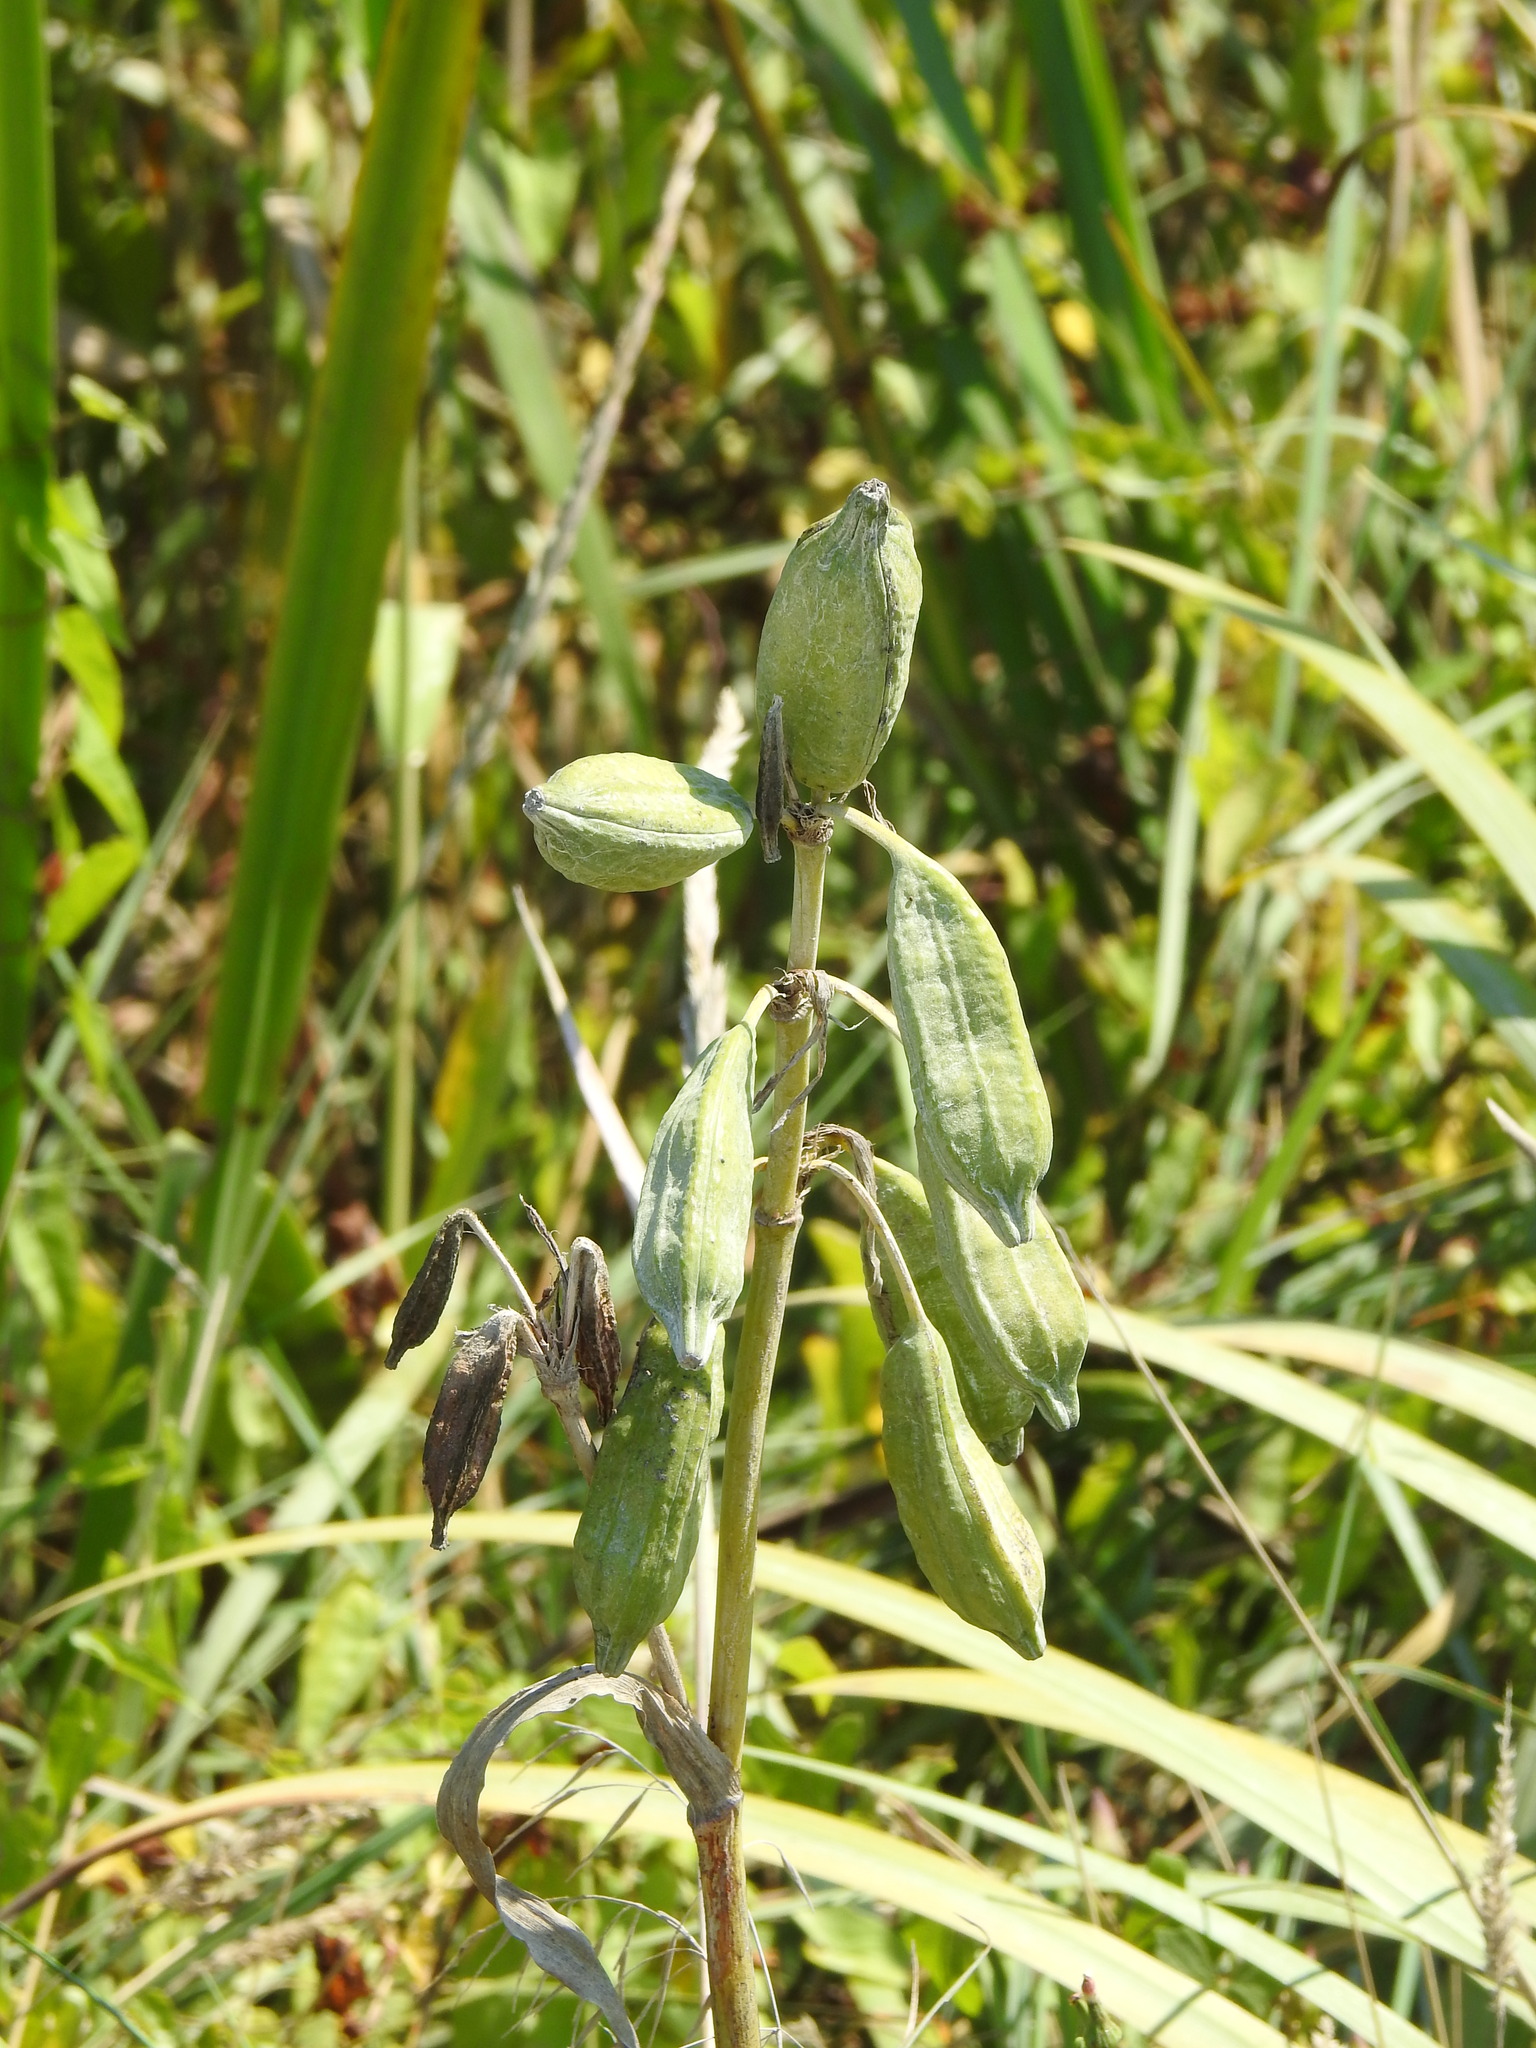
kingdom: Plantae
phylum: Tracheophyta
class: Liliopsida
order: Asparagales
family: Iridaceae
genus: Iris
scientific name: Iris pseudacorus
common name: Yellow flag
